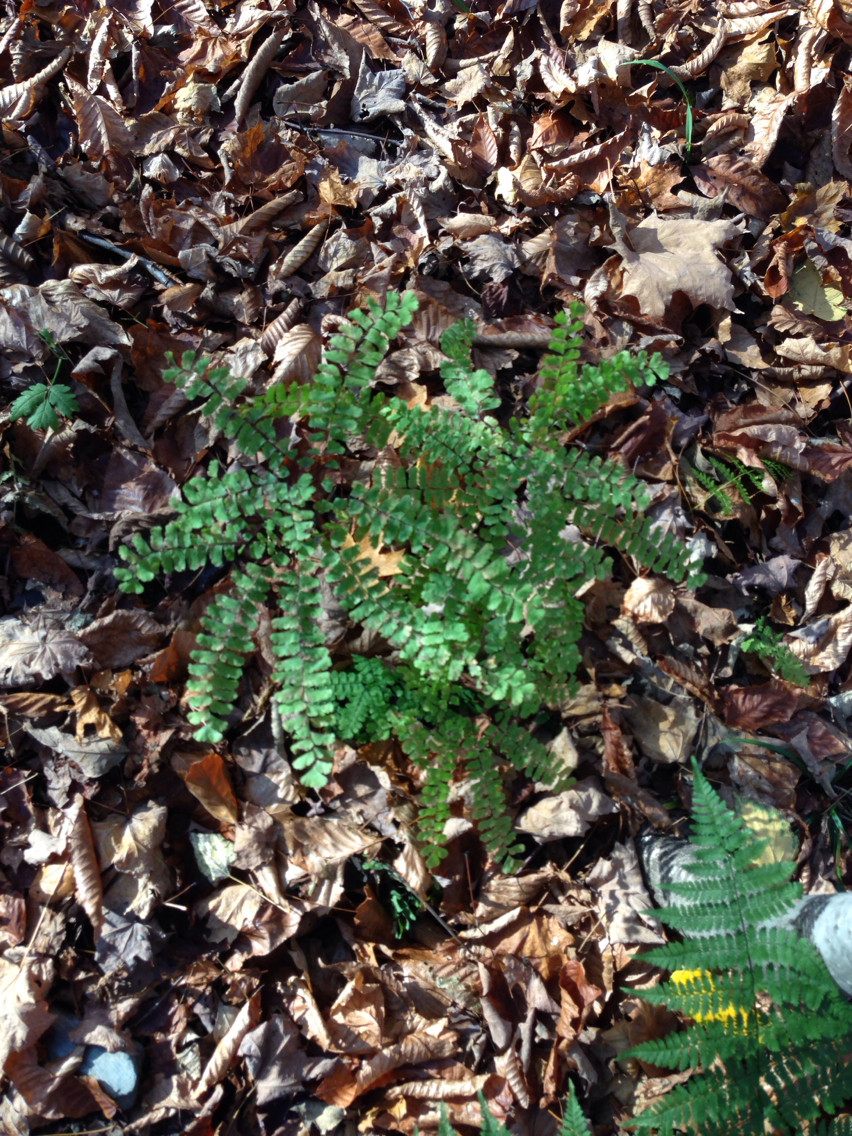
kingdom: Plantae
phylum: Tracheophyta
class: Polypodiopsida
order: Polypodiales
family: Pteridaceae
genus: Adiantum
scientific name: Adiantum pedatum
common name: Five-finger fern
